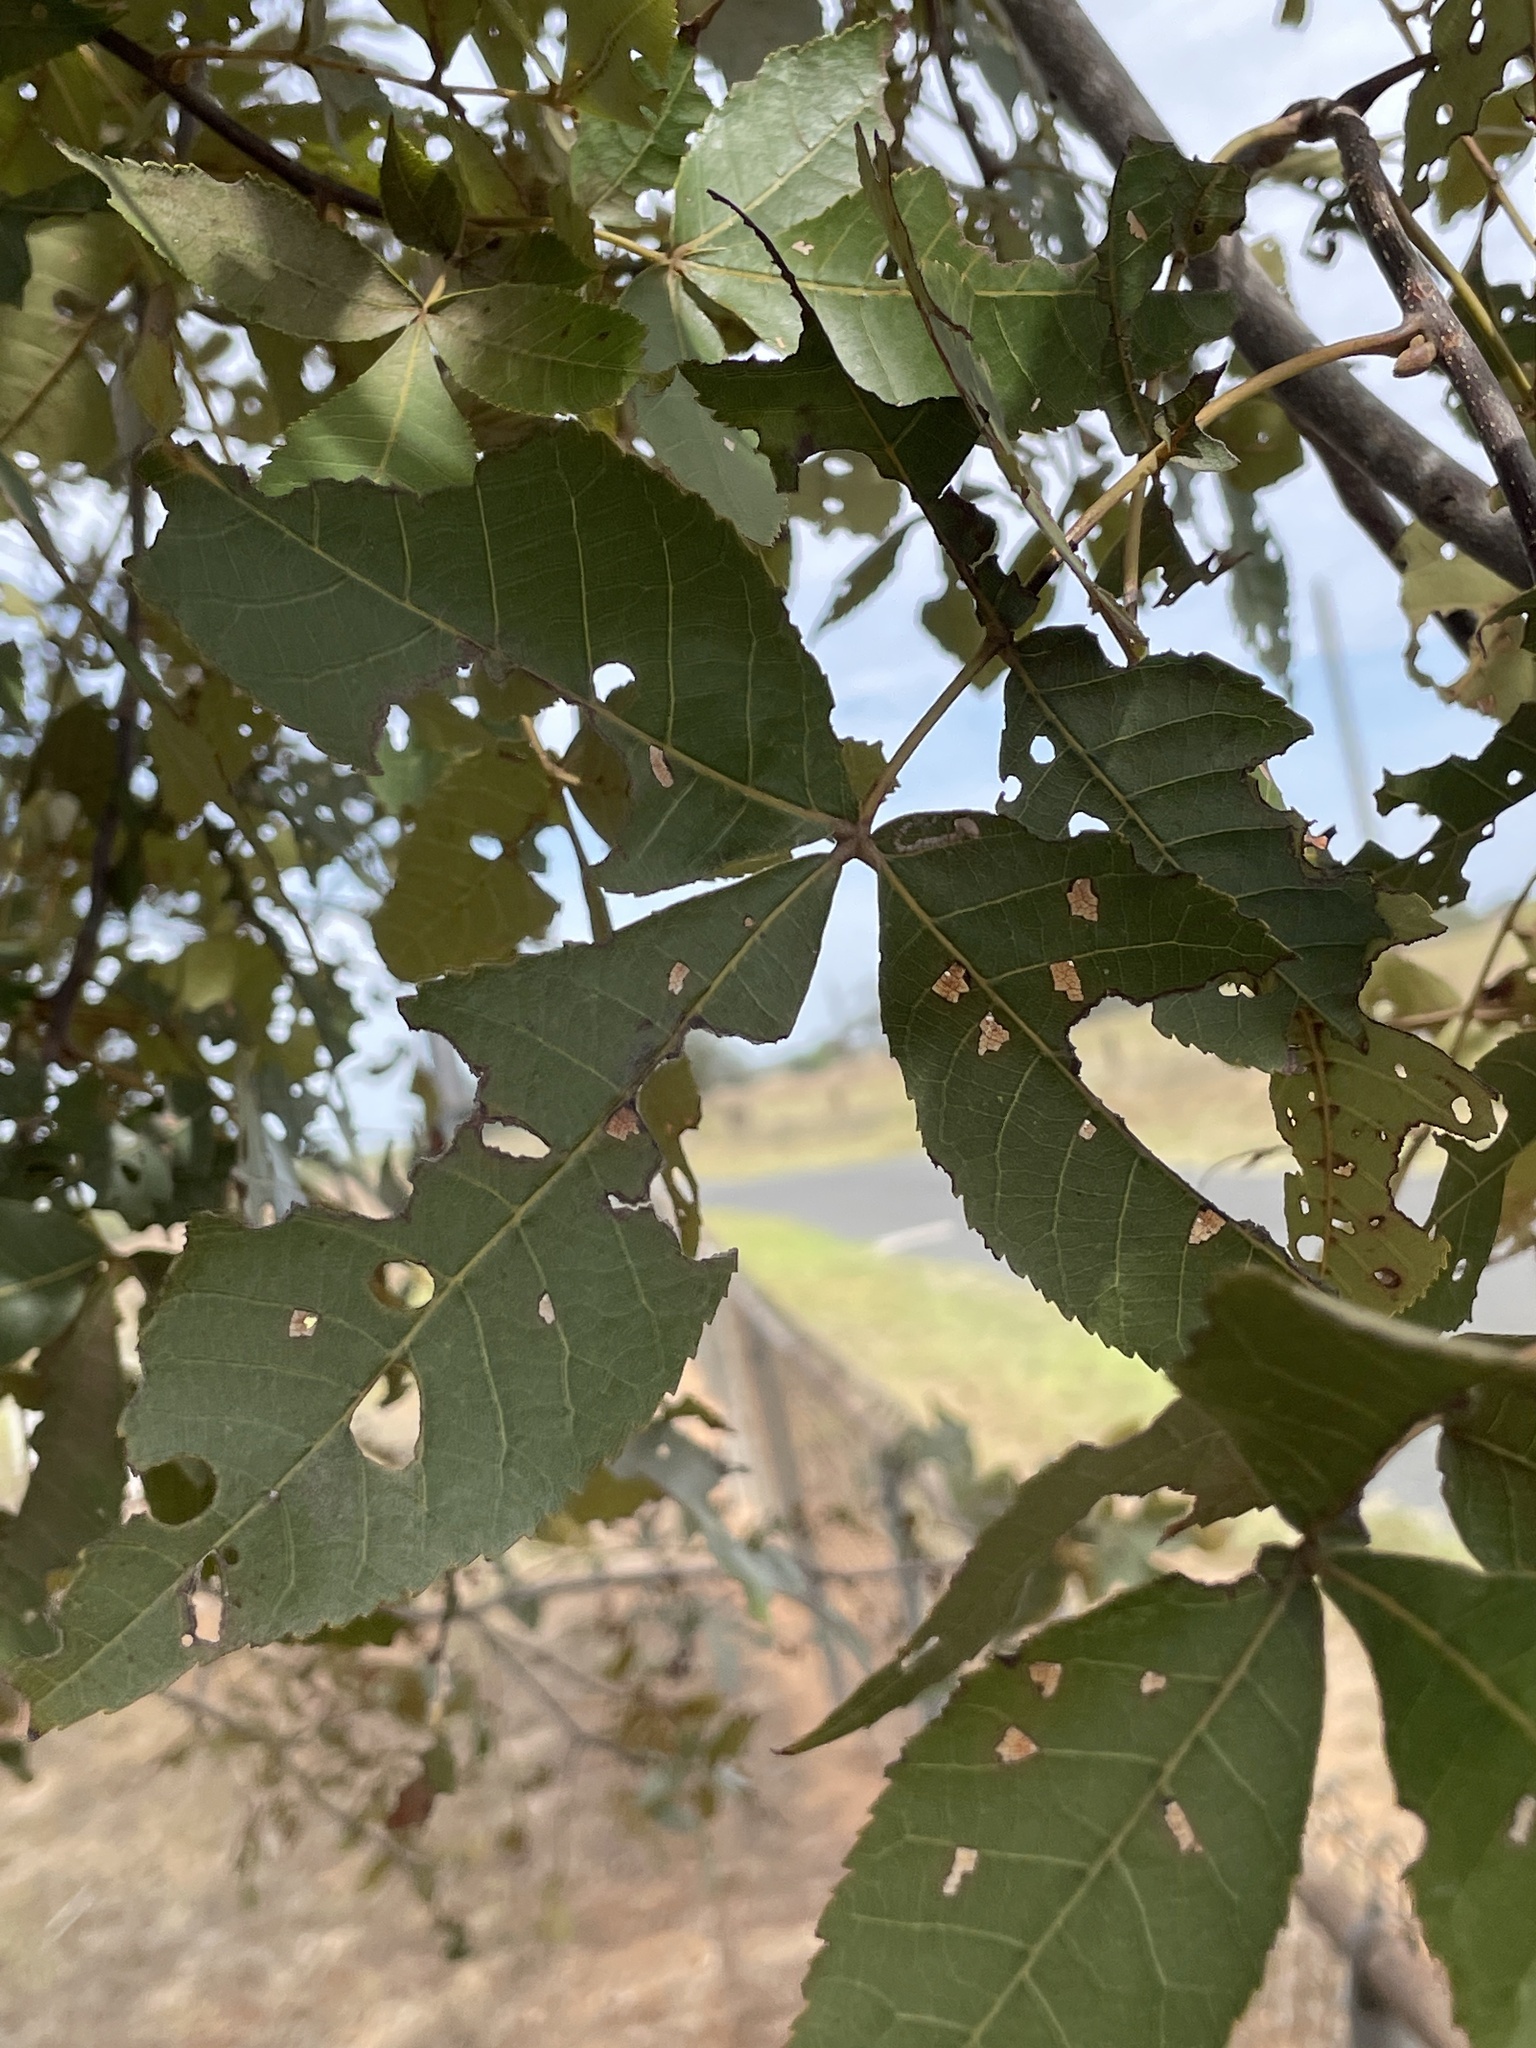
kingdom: Plantae
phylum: Tracheophyta
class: Magnoliopsida
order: Fagales
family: Juglandaceae
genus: Carya
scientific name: Carya texana
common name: Black hickory
